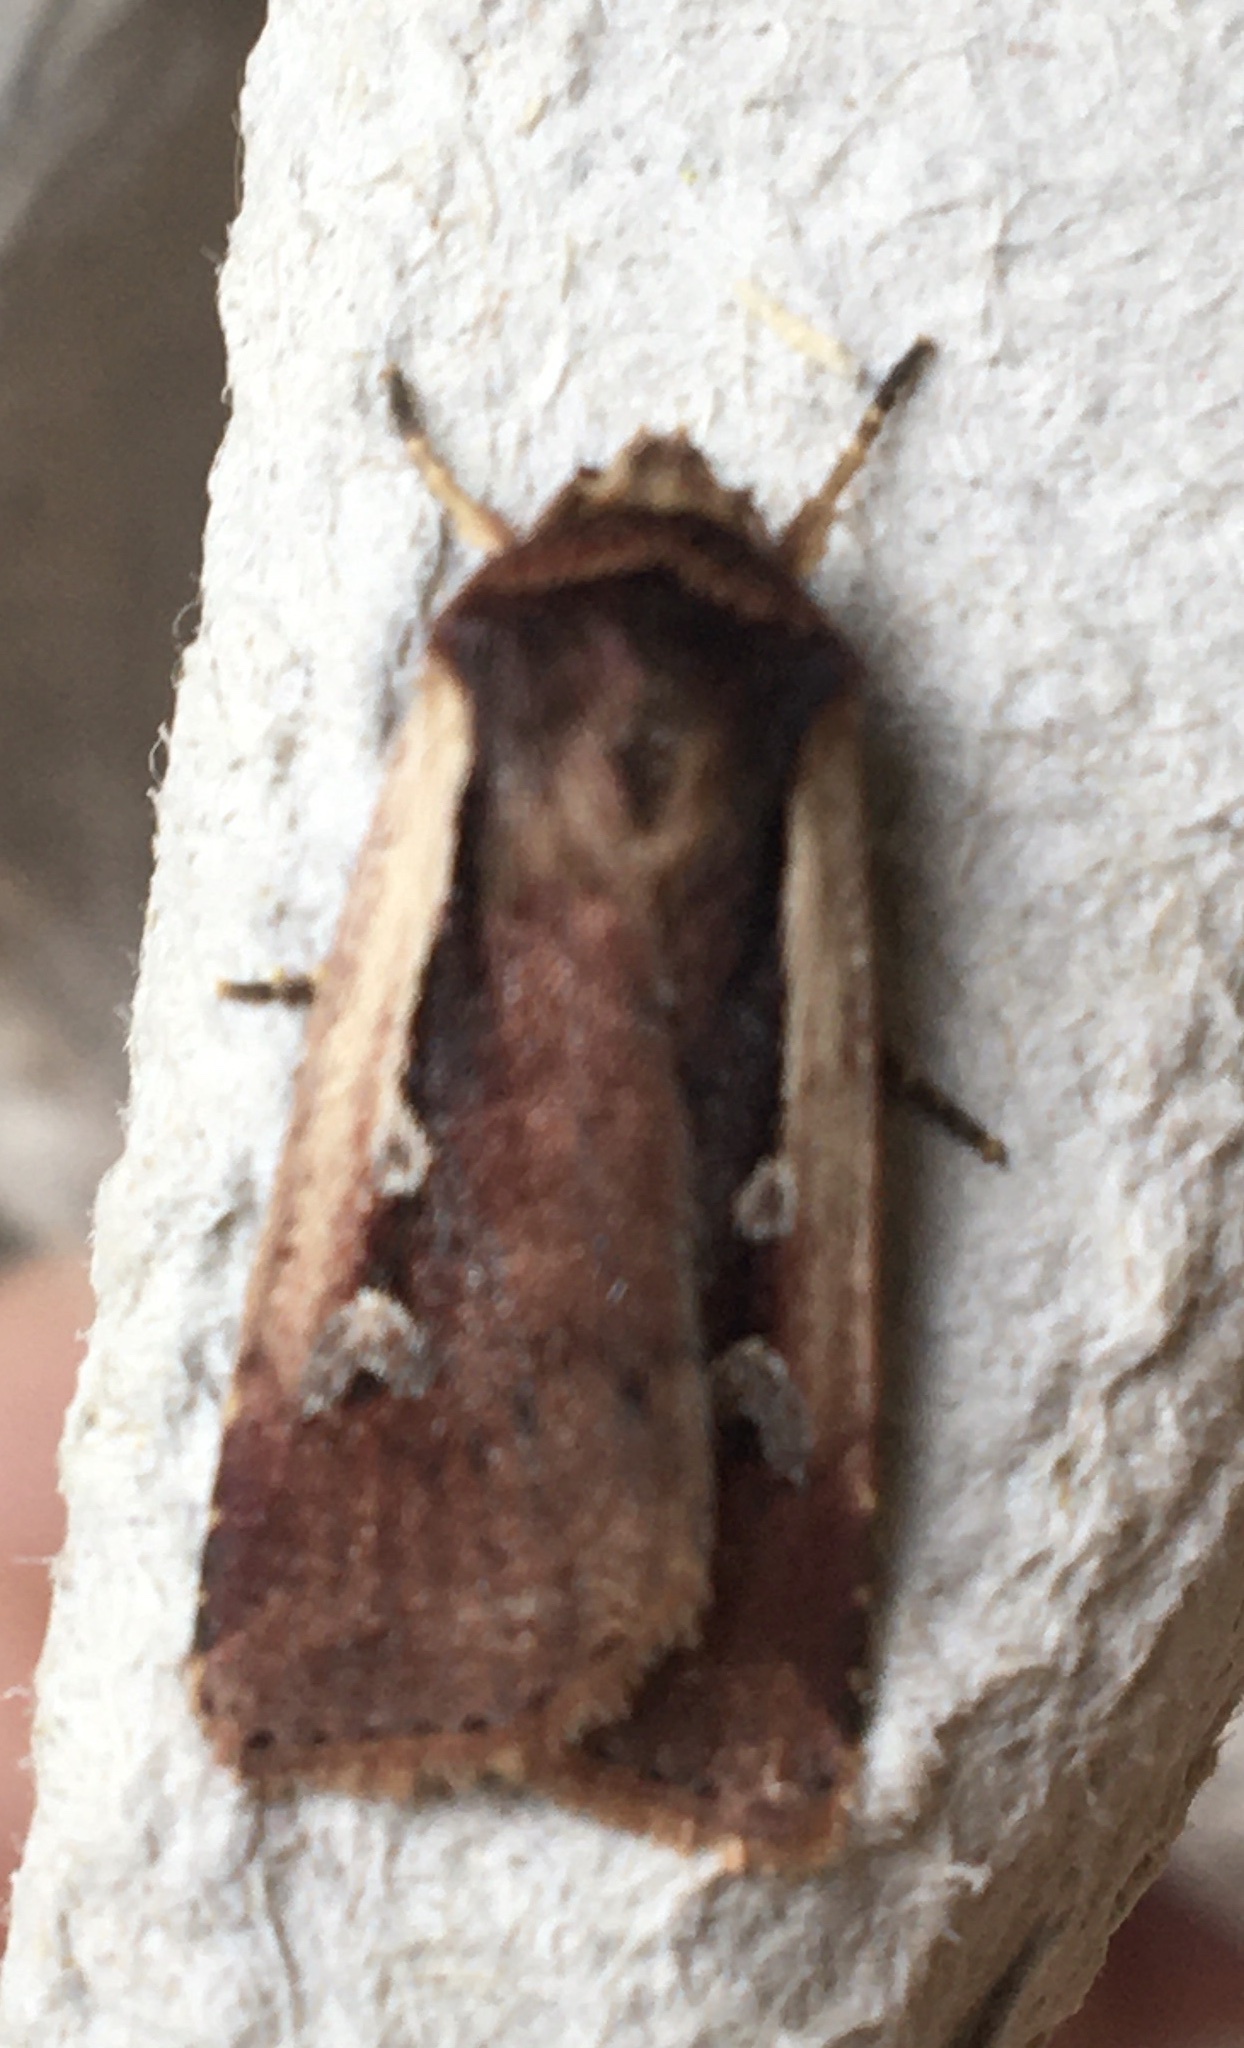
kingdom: Animalia
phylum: Arthropoda
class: Insecta
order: Lepidoptera
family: Noctuidae
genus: Ochropleura
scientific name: Ochropleura plecta
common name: Flame shoulder
